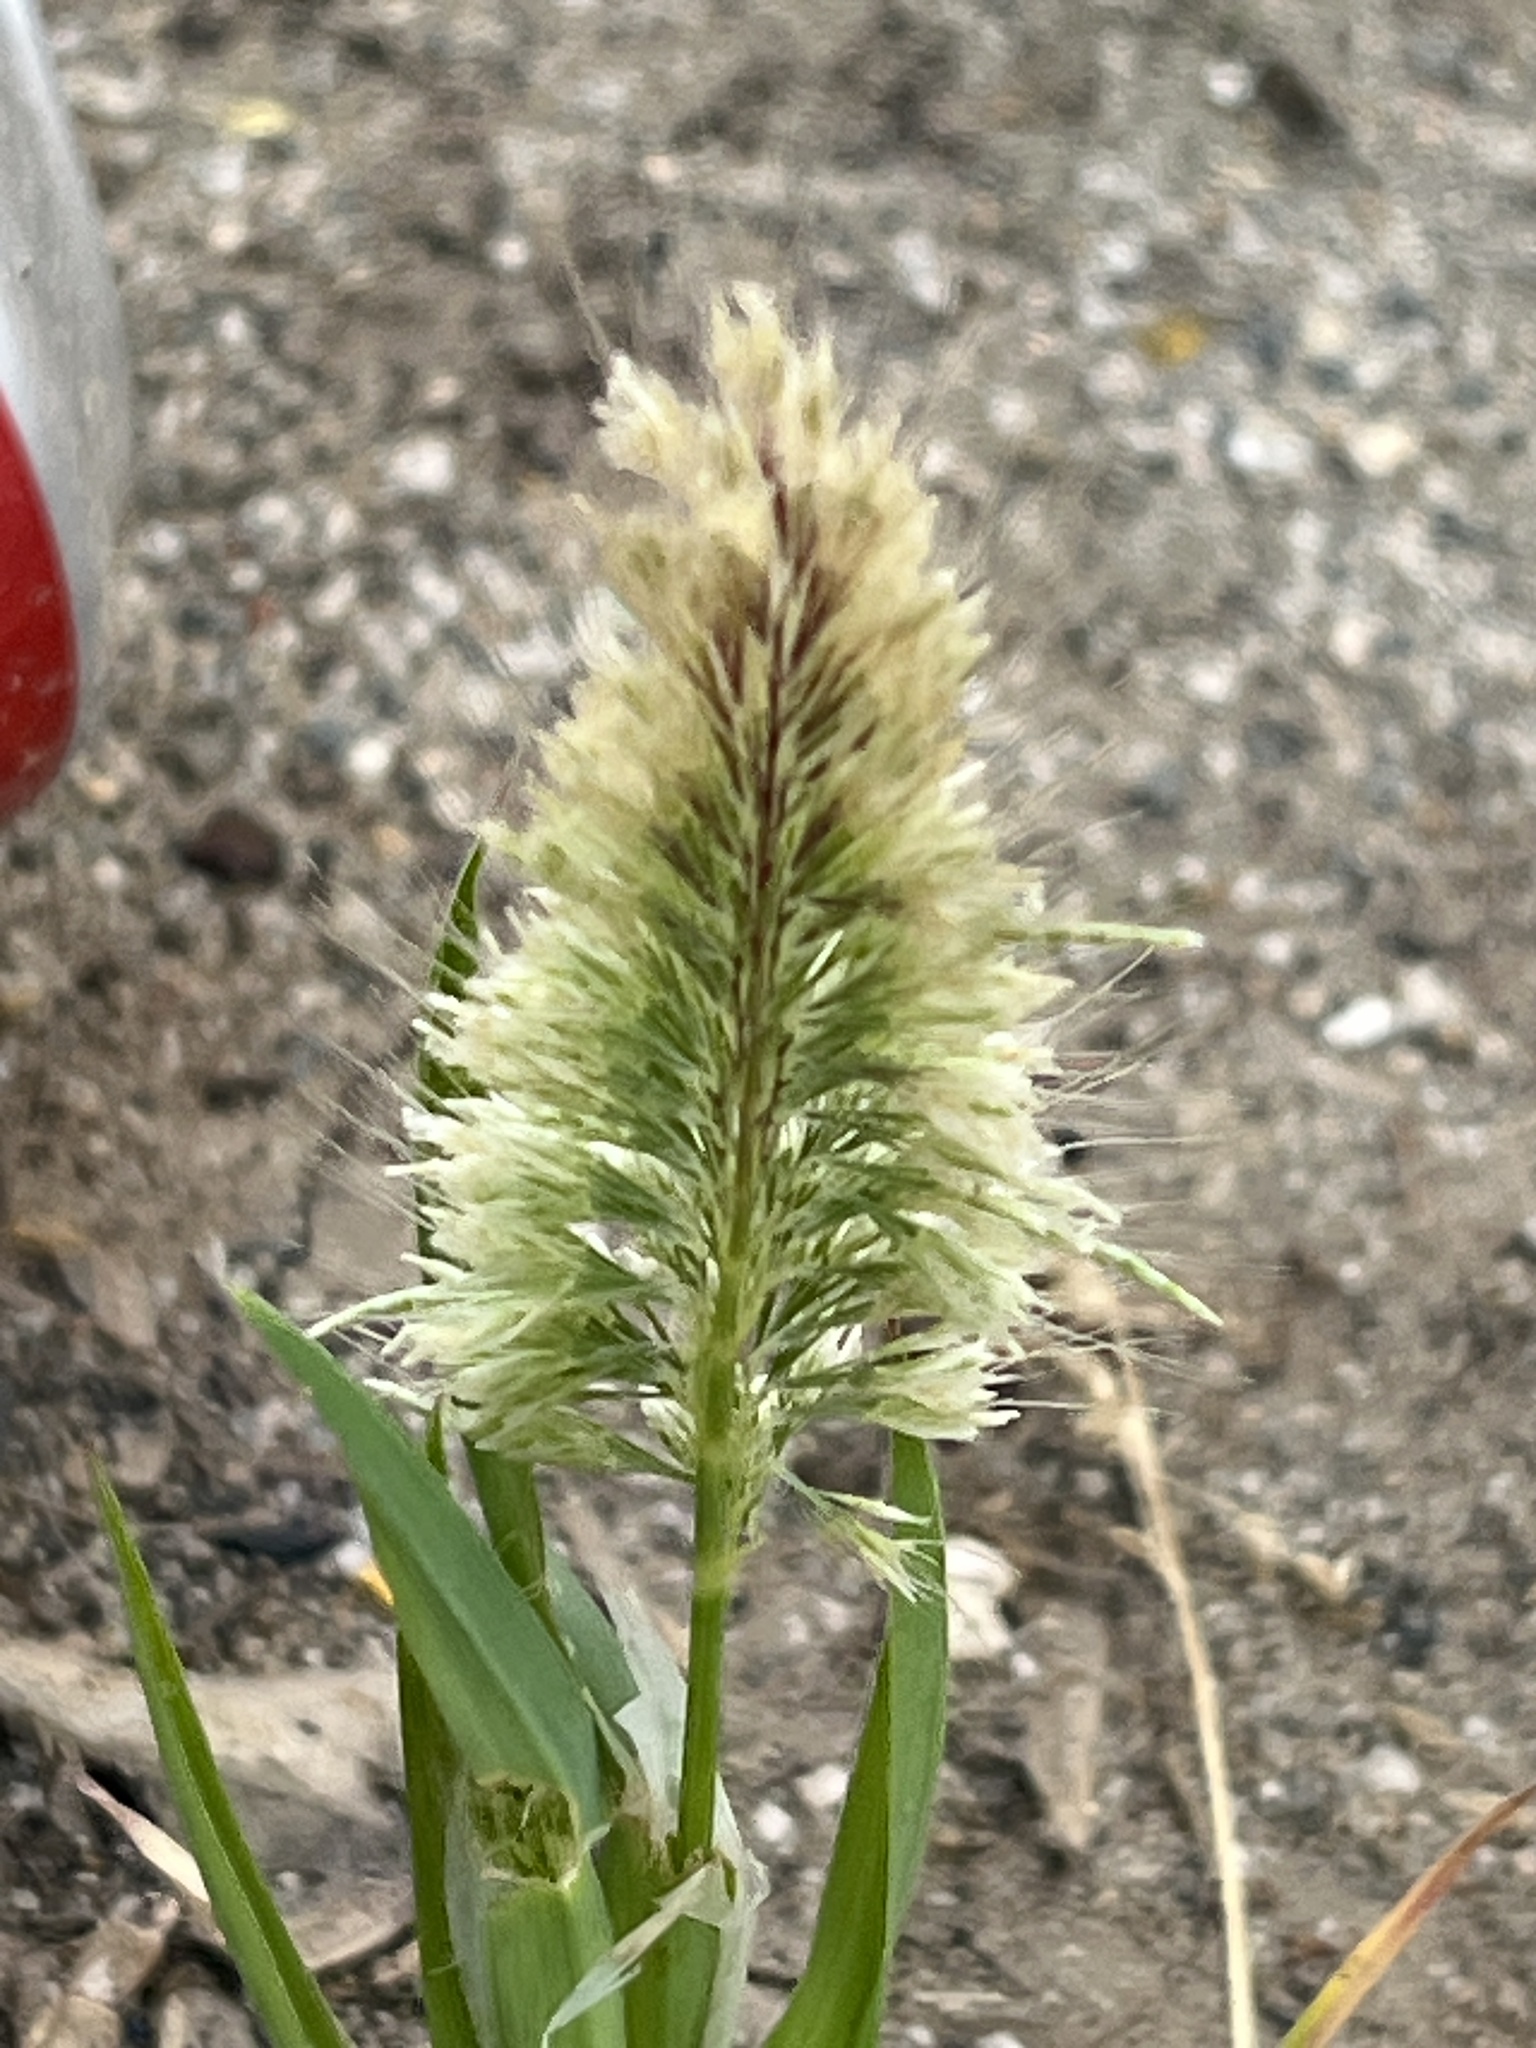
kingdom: Plantae
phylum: Tracheophyta
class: Liliopsida
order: Poales
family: Poaceae
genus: Lamarckia
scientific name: Lamarckia aurea
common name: Golden dog's-tail
